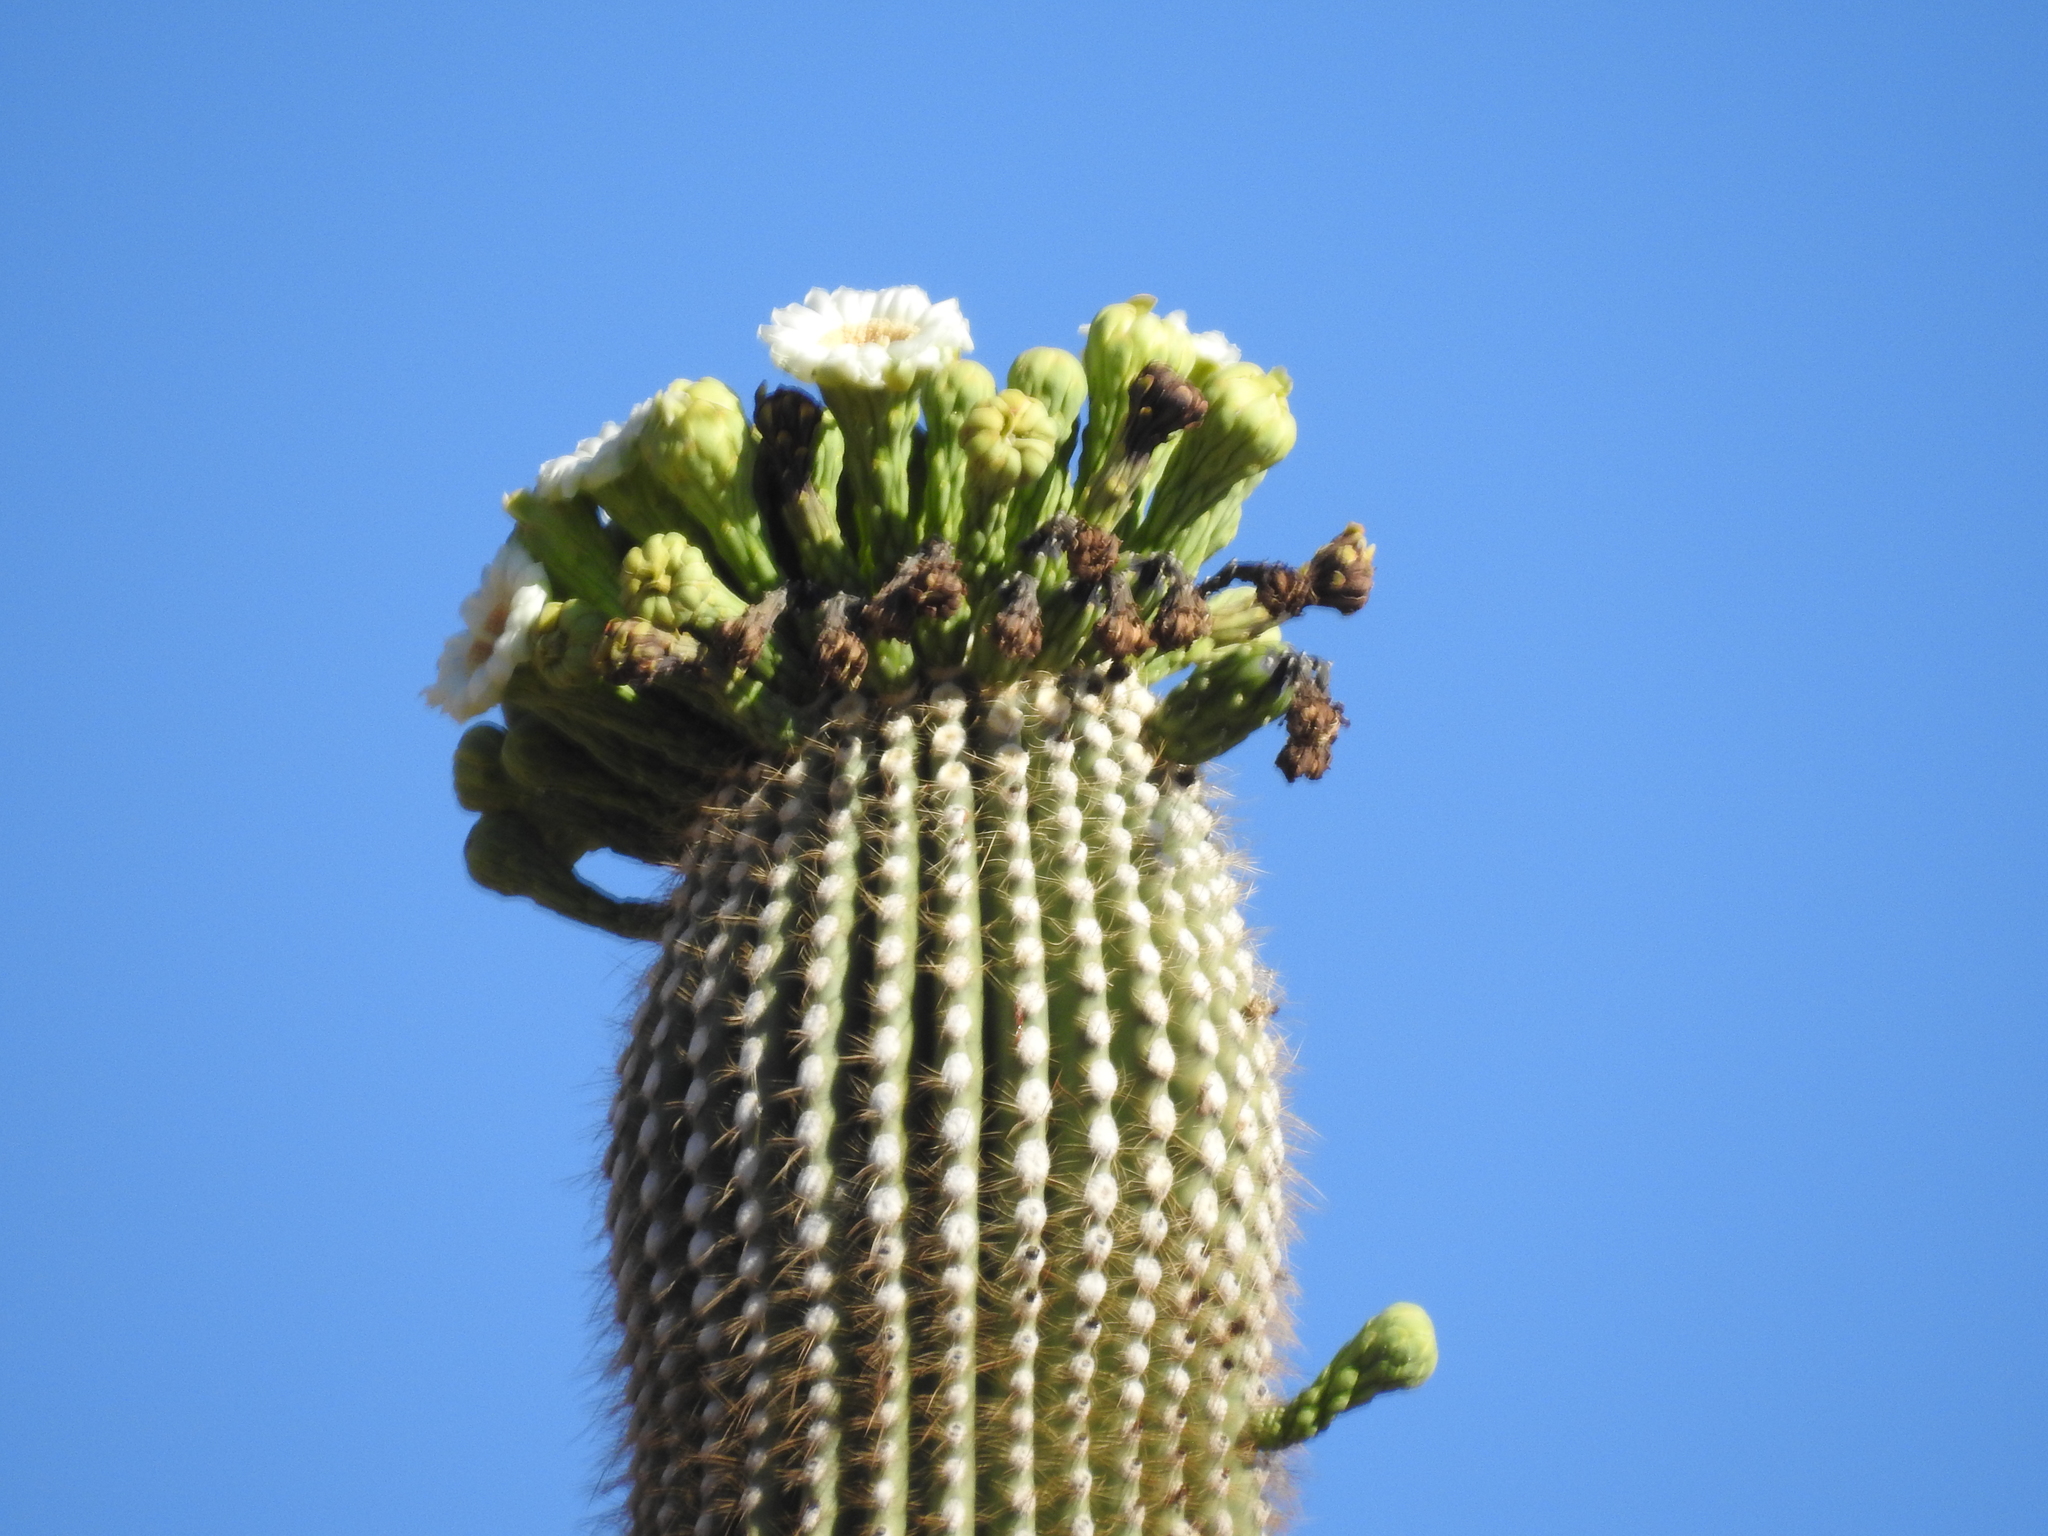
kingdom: Plantae
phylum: Tracheophyta
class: Magnoliopsida
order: Caryophyllales
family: Cactaceae
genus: Carnegiea
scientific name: Carnegiea gigantea
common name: Saguaro
